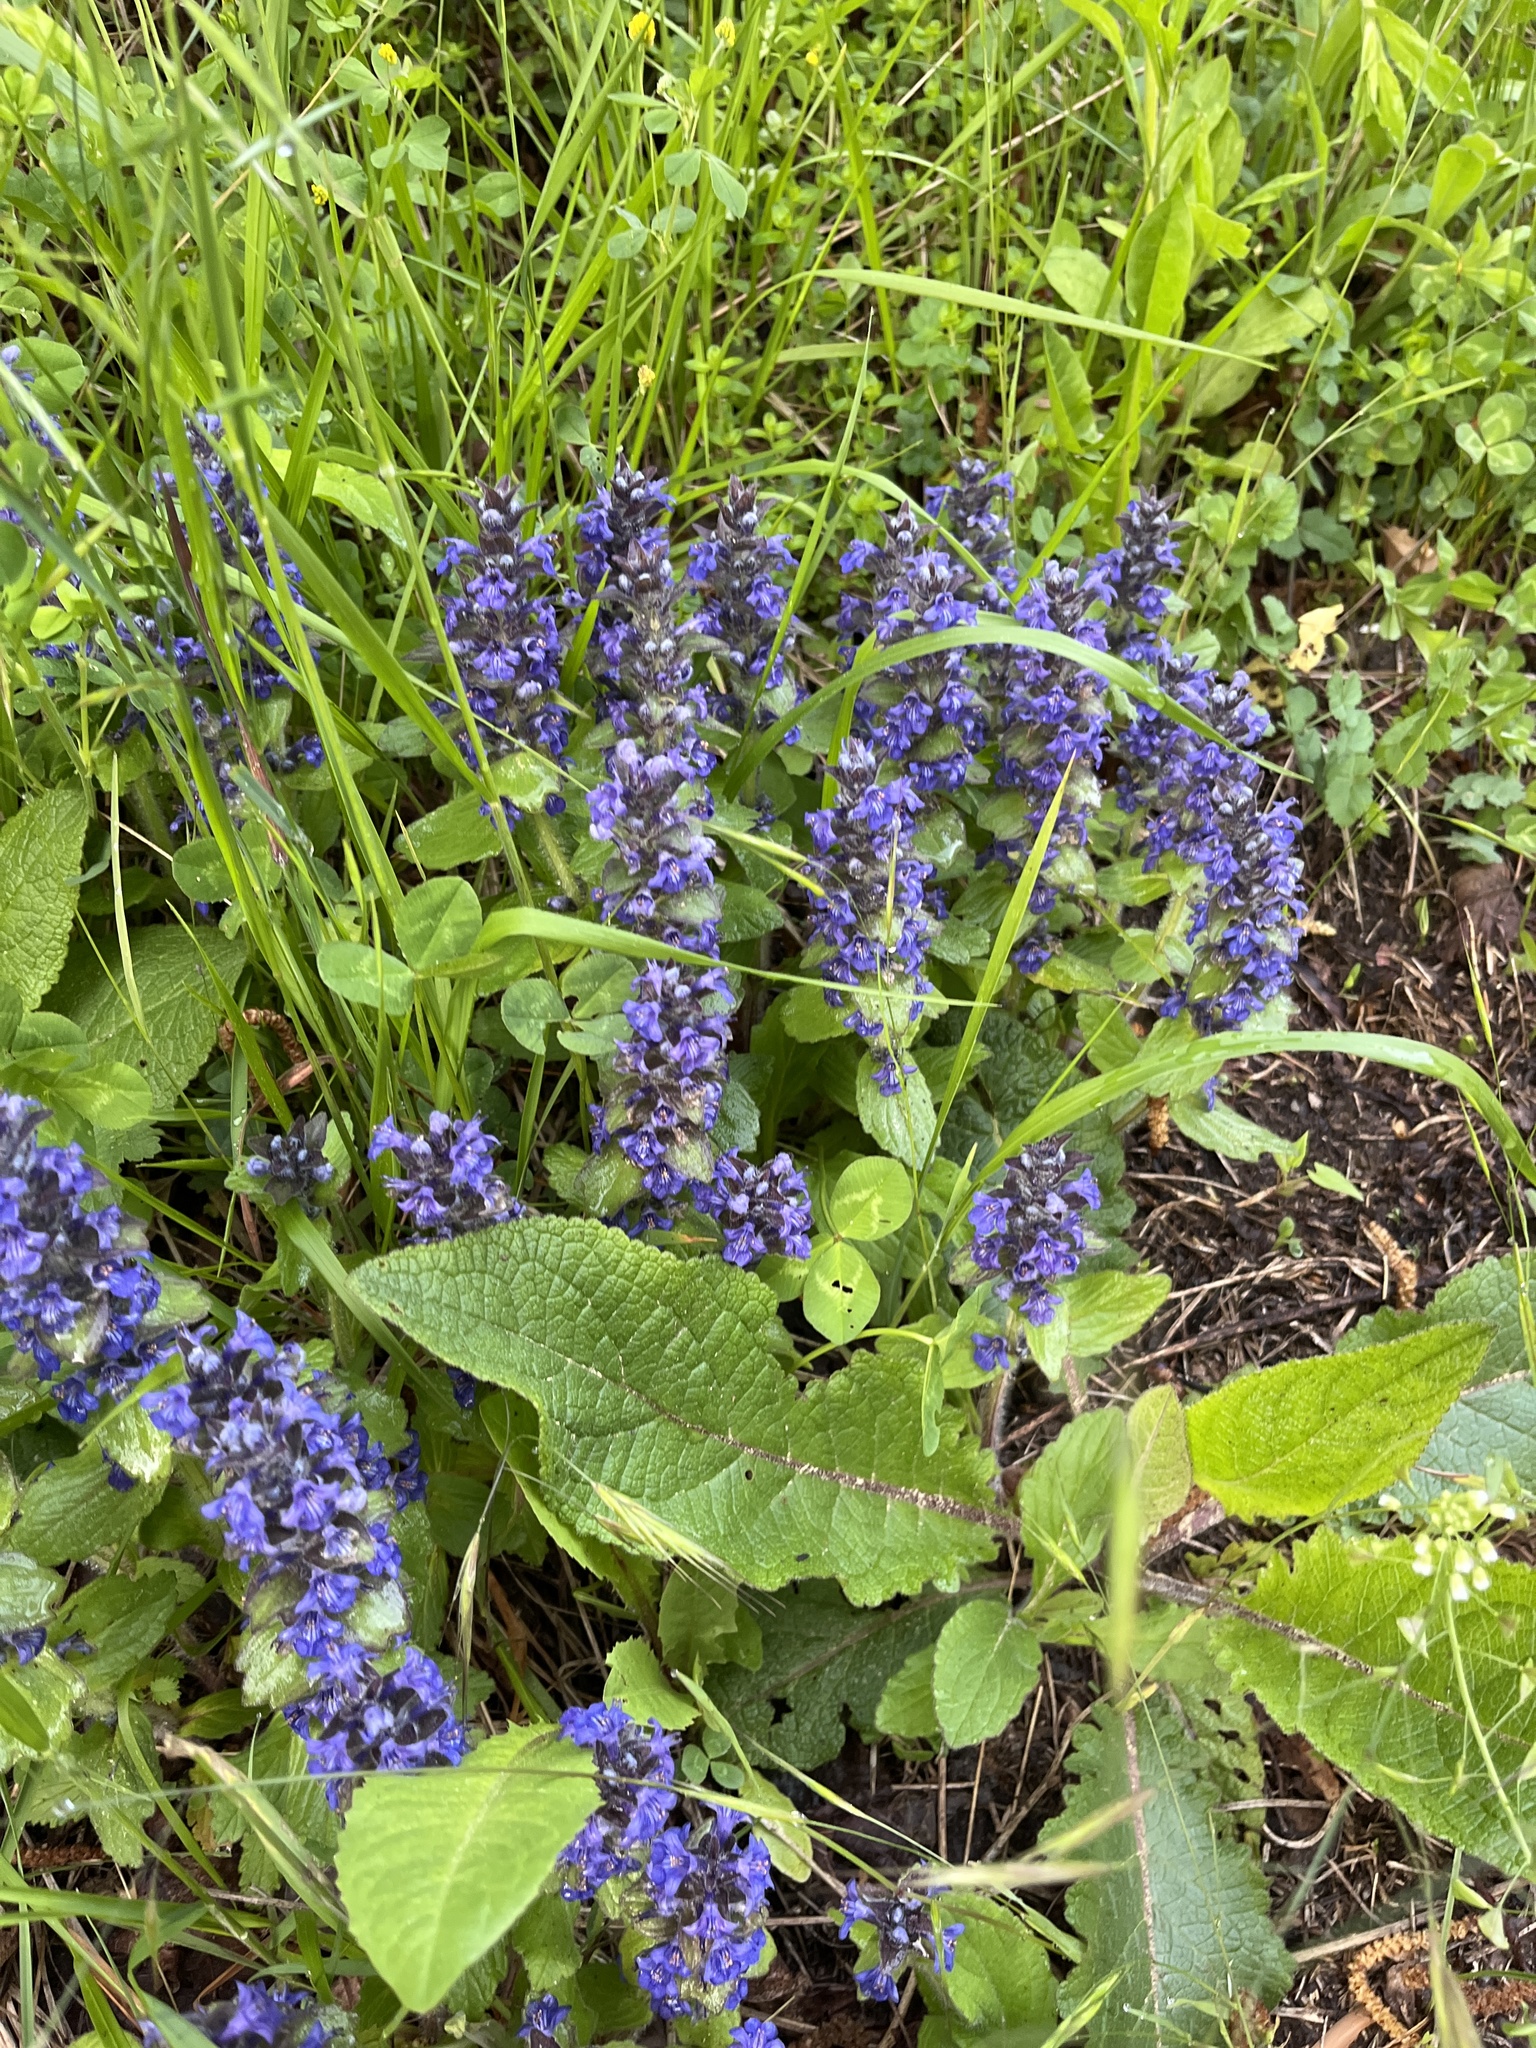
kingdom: Plantae
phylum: Tracheophyta
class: Magnoliopsida
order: Lamiales
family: Lamiaceae
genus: Ajuga
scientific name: Ajuga reptans
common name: Bugle
